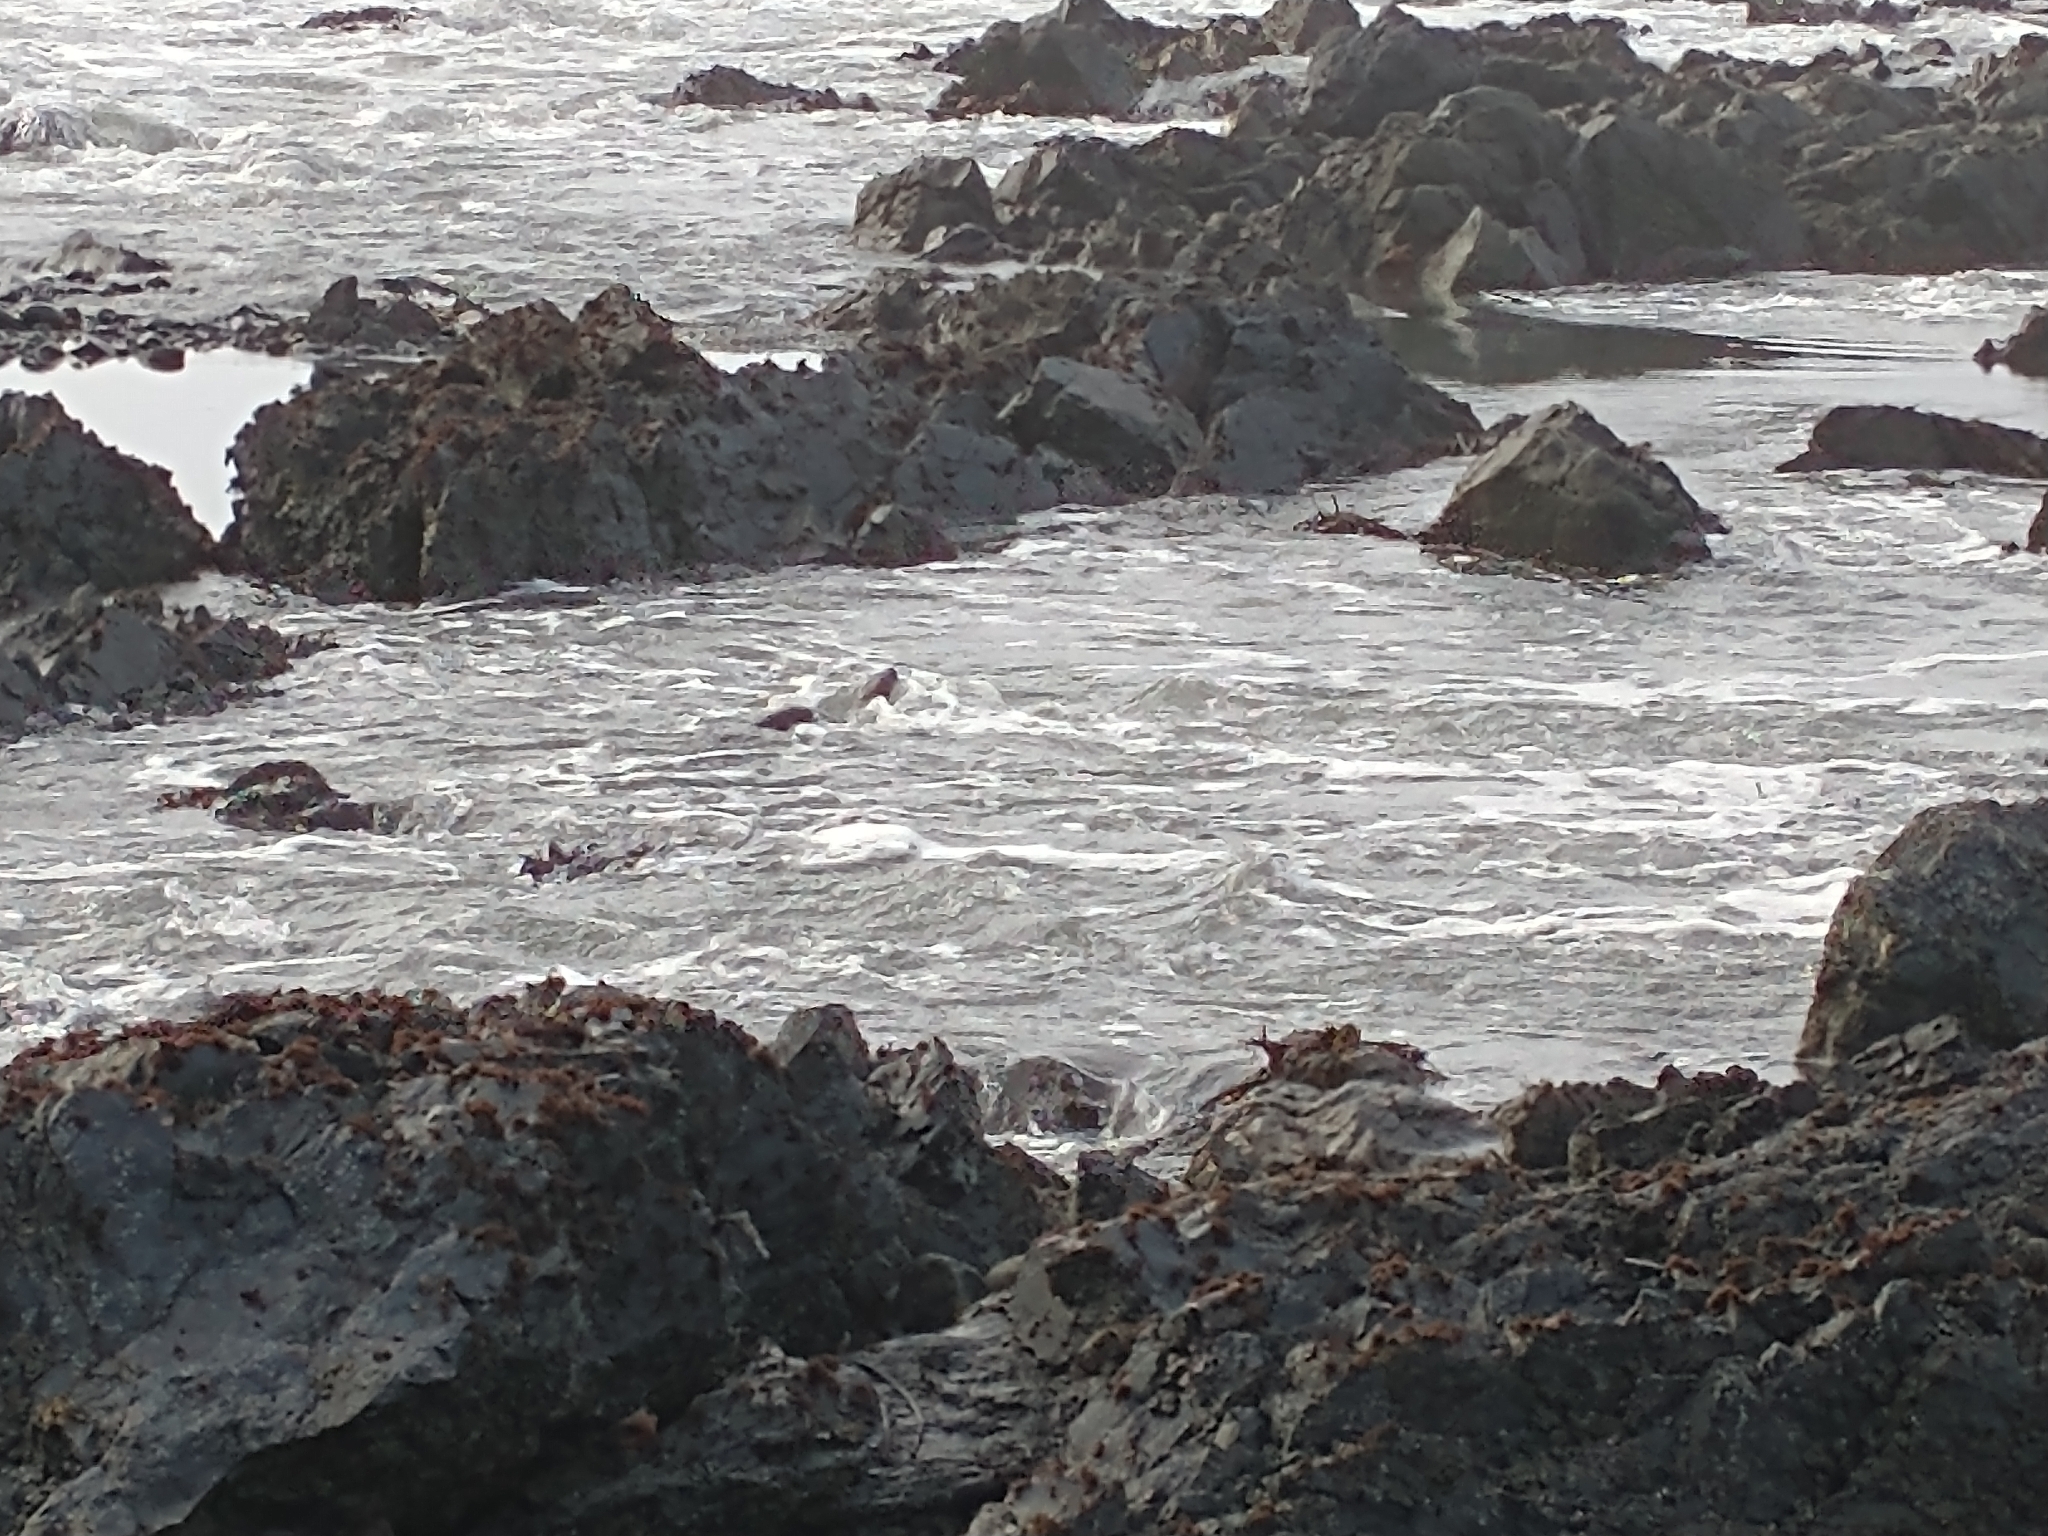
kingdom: Animalia
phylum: Chordata
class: Mammalia
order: Carnivora
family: Mustelidae
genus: Lontra
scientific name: Lontra canadensis
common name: North american river otter
